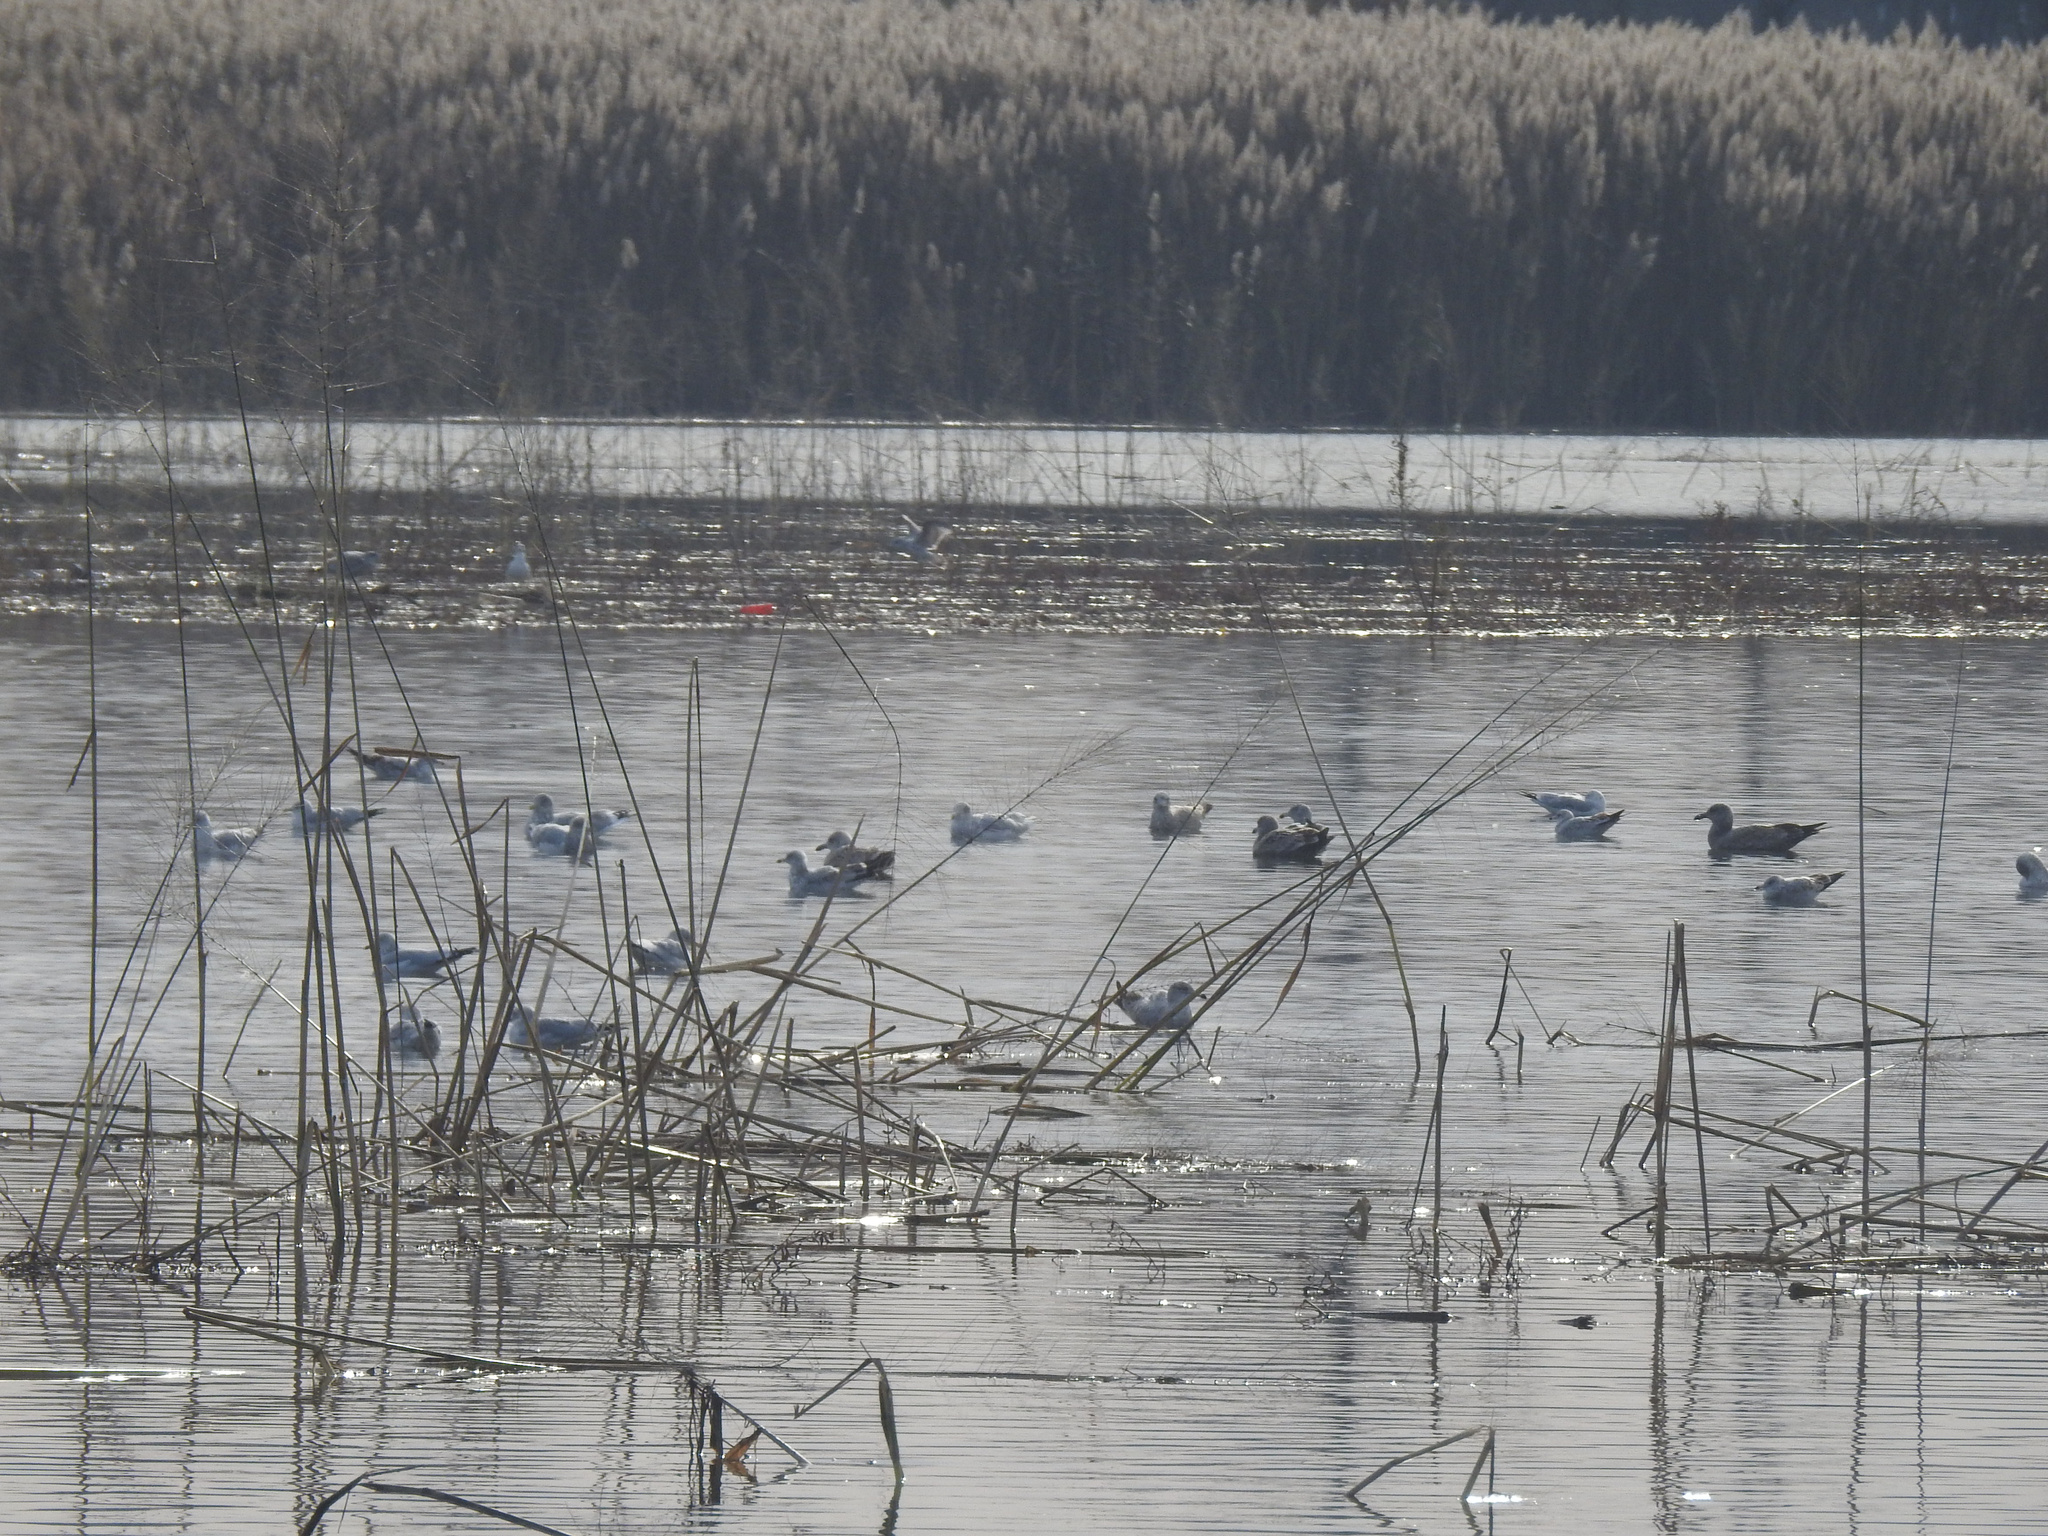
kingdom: Animalia
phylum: Chordata
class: Aves
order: Charadriiformes
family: Laridae
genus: Larus
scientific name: Larus delawarensis
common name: Ring-billed gull
